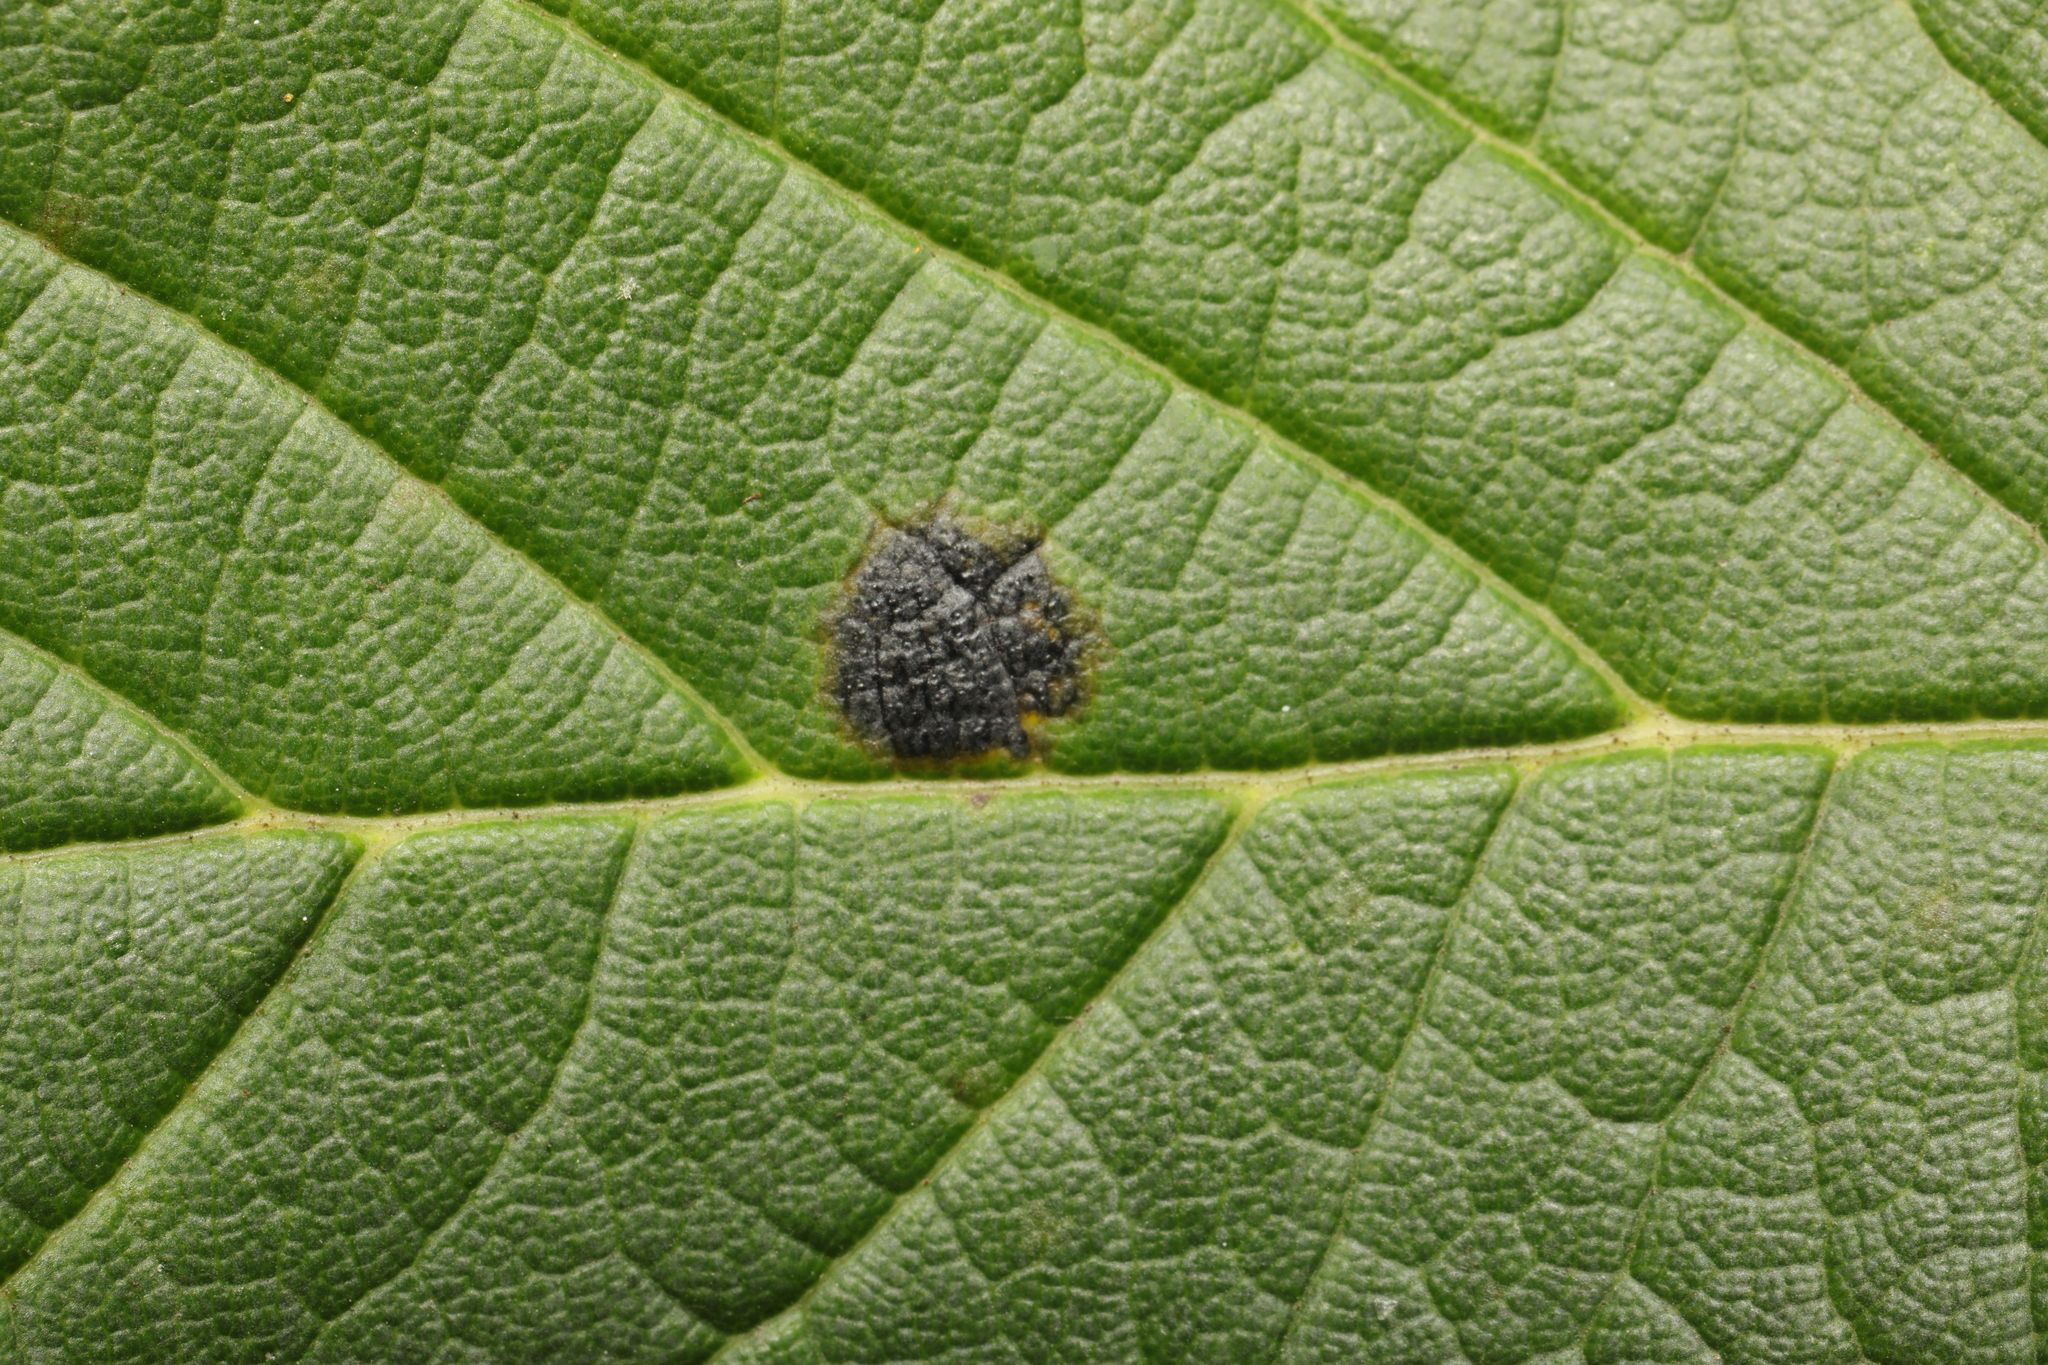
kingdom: Fungi
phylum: Ascomycota
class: Leotiomycetes
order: Rhytismatales
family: Rhytismataceae
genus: Rhytisma
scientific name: Rhytisma acerinum
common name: European tar spot
